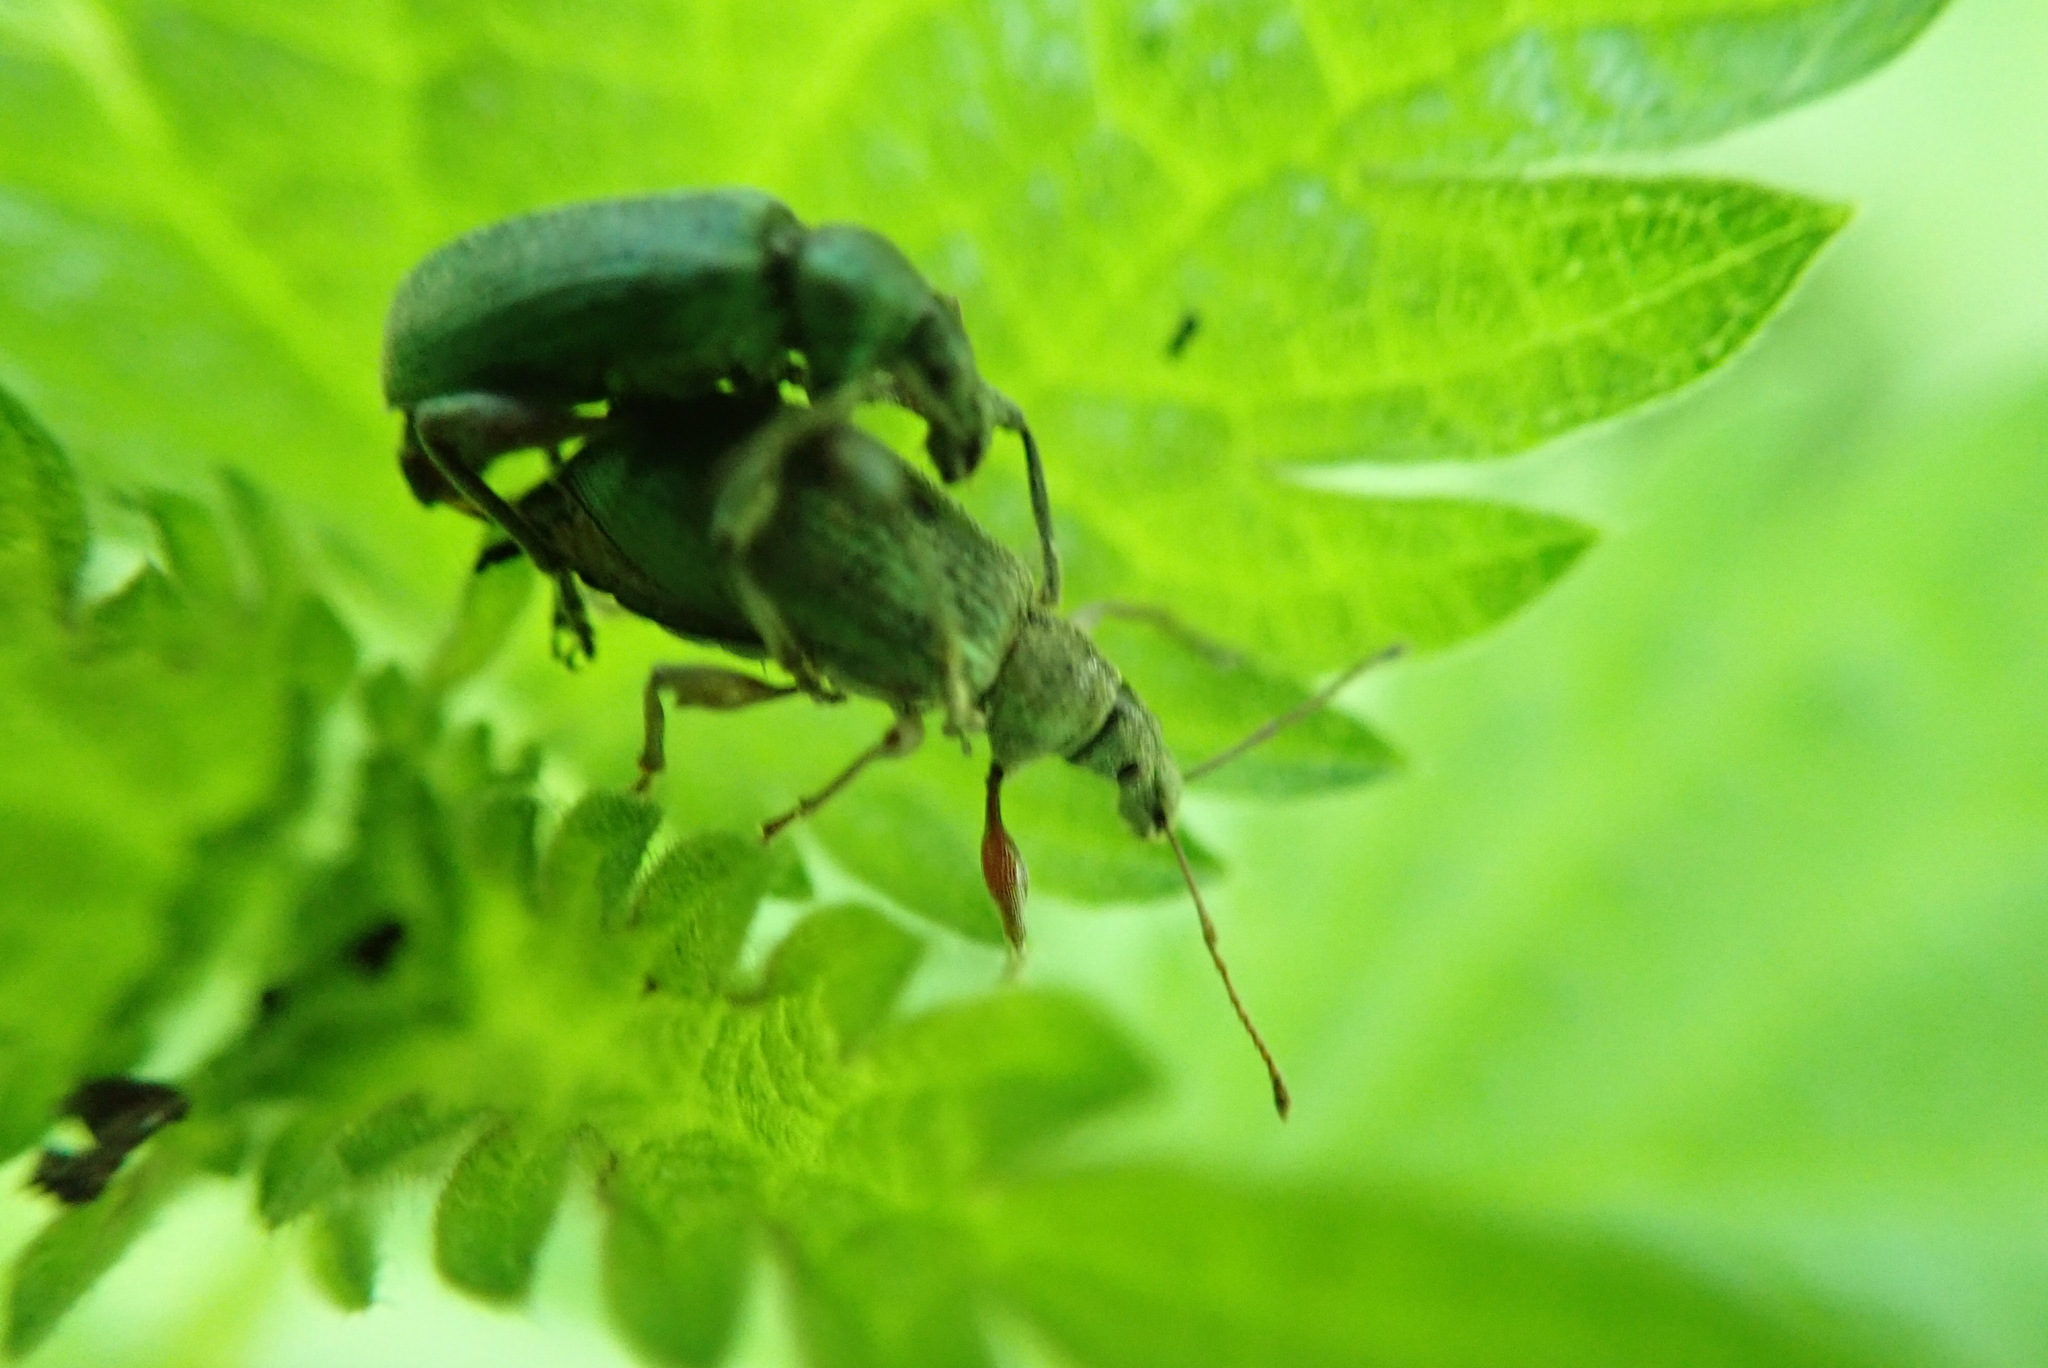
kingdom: Animalia
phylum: Arthropoda
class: Insecta
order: Coleoptera
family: Curculionidae
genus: Phyllobius
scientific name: Phyllobius pomaceus
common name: Green nettle weevil
